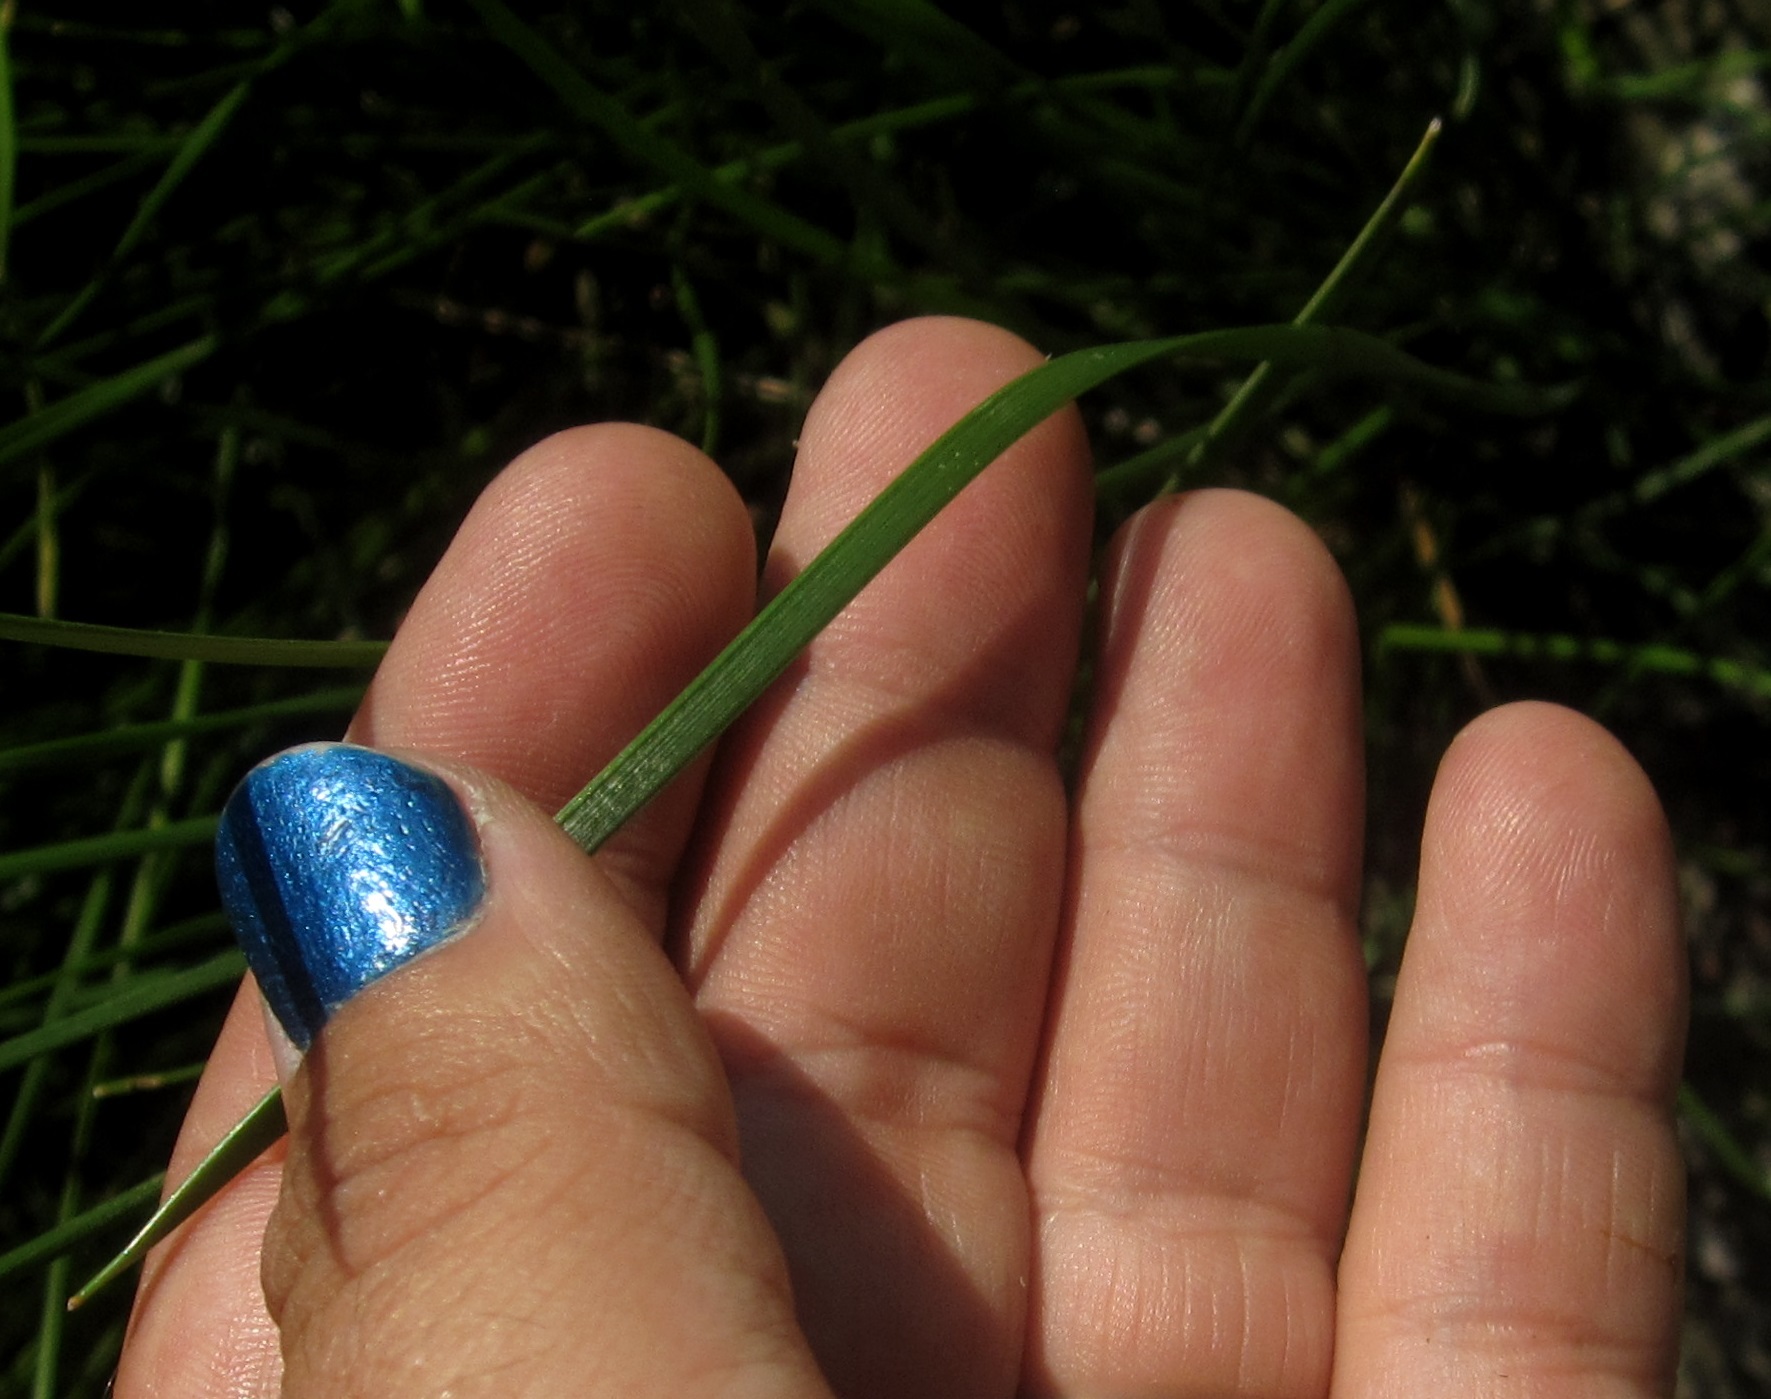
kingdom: Plantae
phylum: Tracheophyta
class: Liliopsida
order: Poales
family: Cyperaceae
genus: Eleocharis
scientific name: Eleocharis compressa
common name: Flat-stem spike-rush
